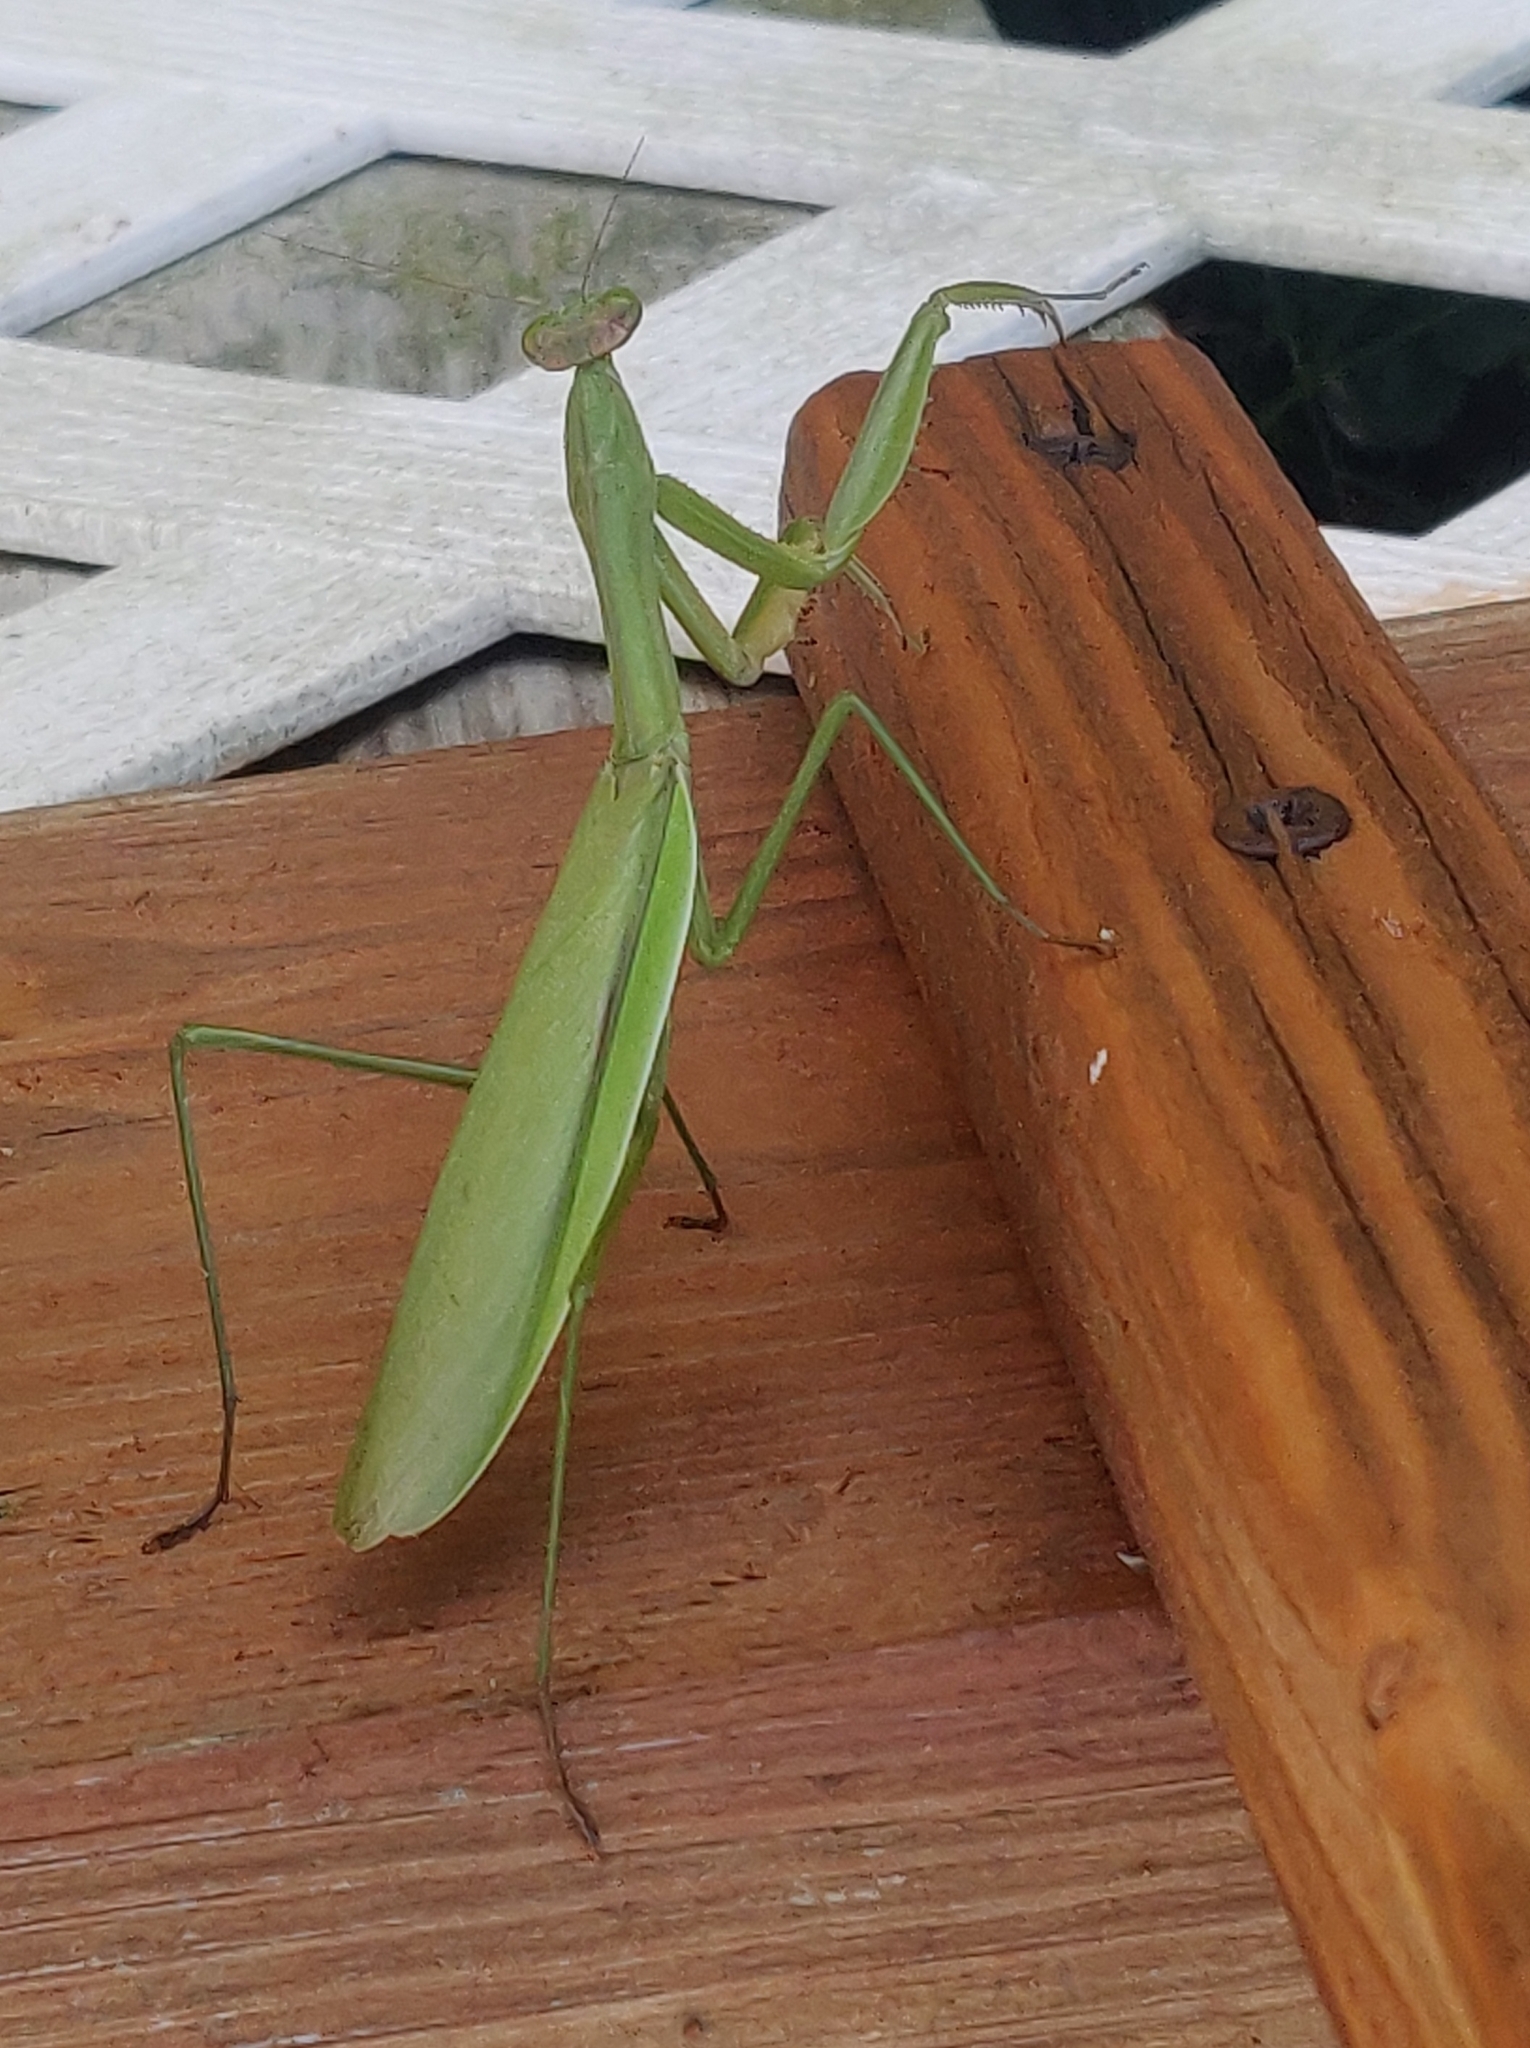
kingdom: Animalia
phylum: Arthropoda
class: Insecta
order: Mantodea
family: Mantidae
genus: Tenodera
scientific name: Tenodera sinensis
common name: Chinese mantis
